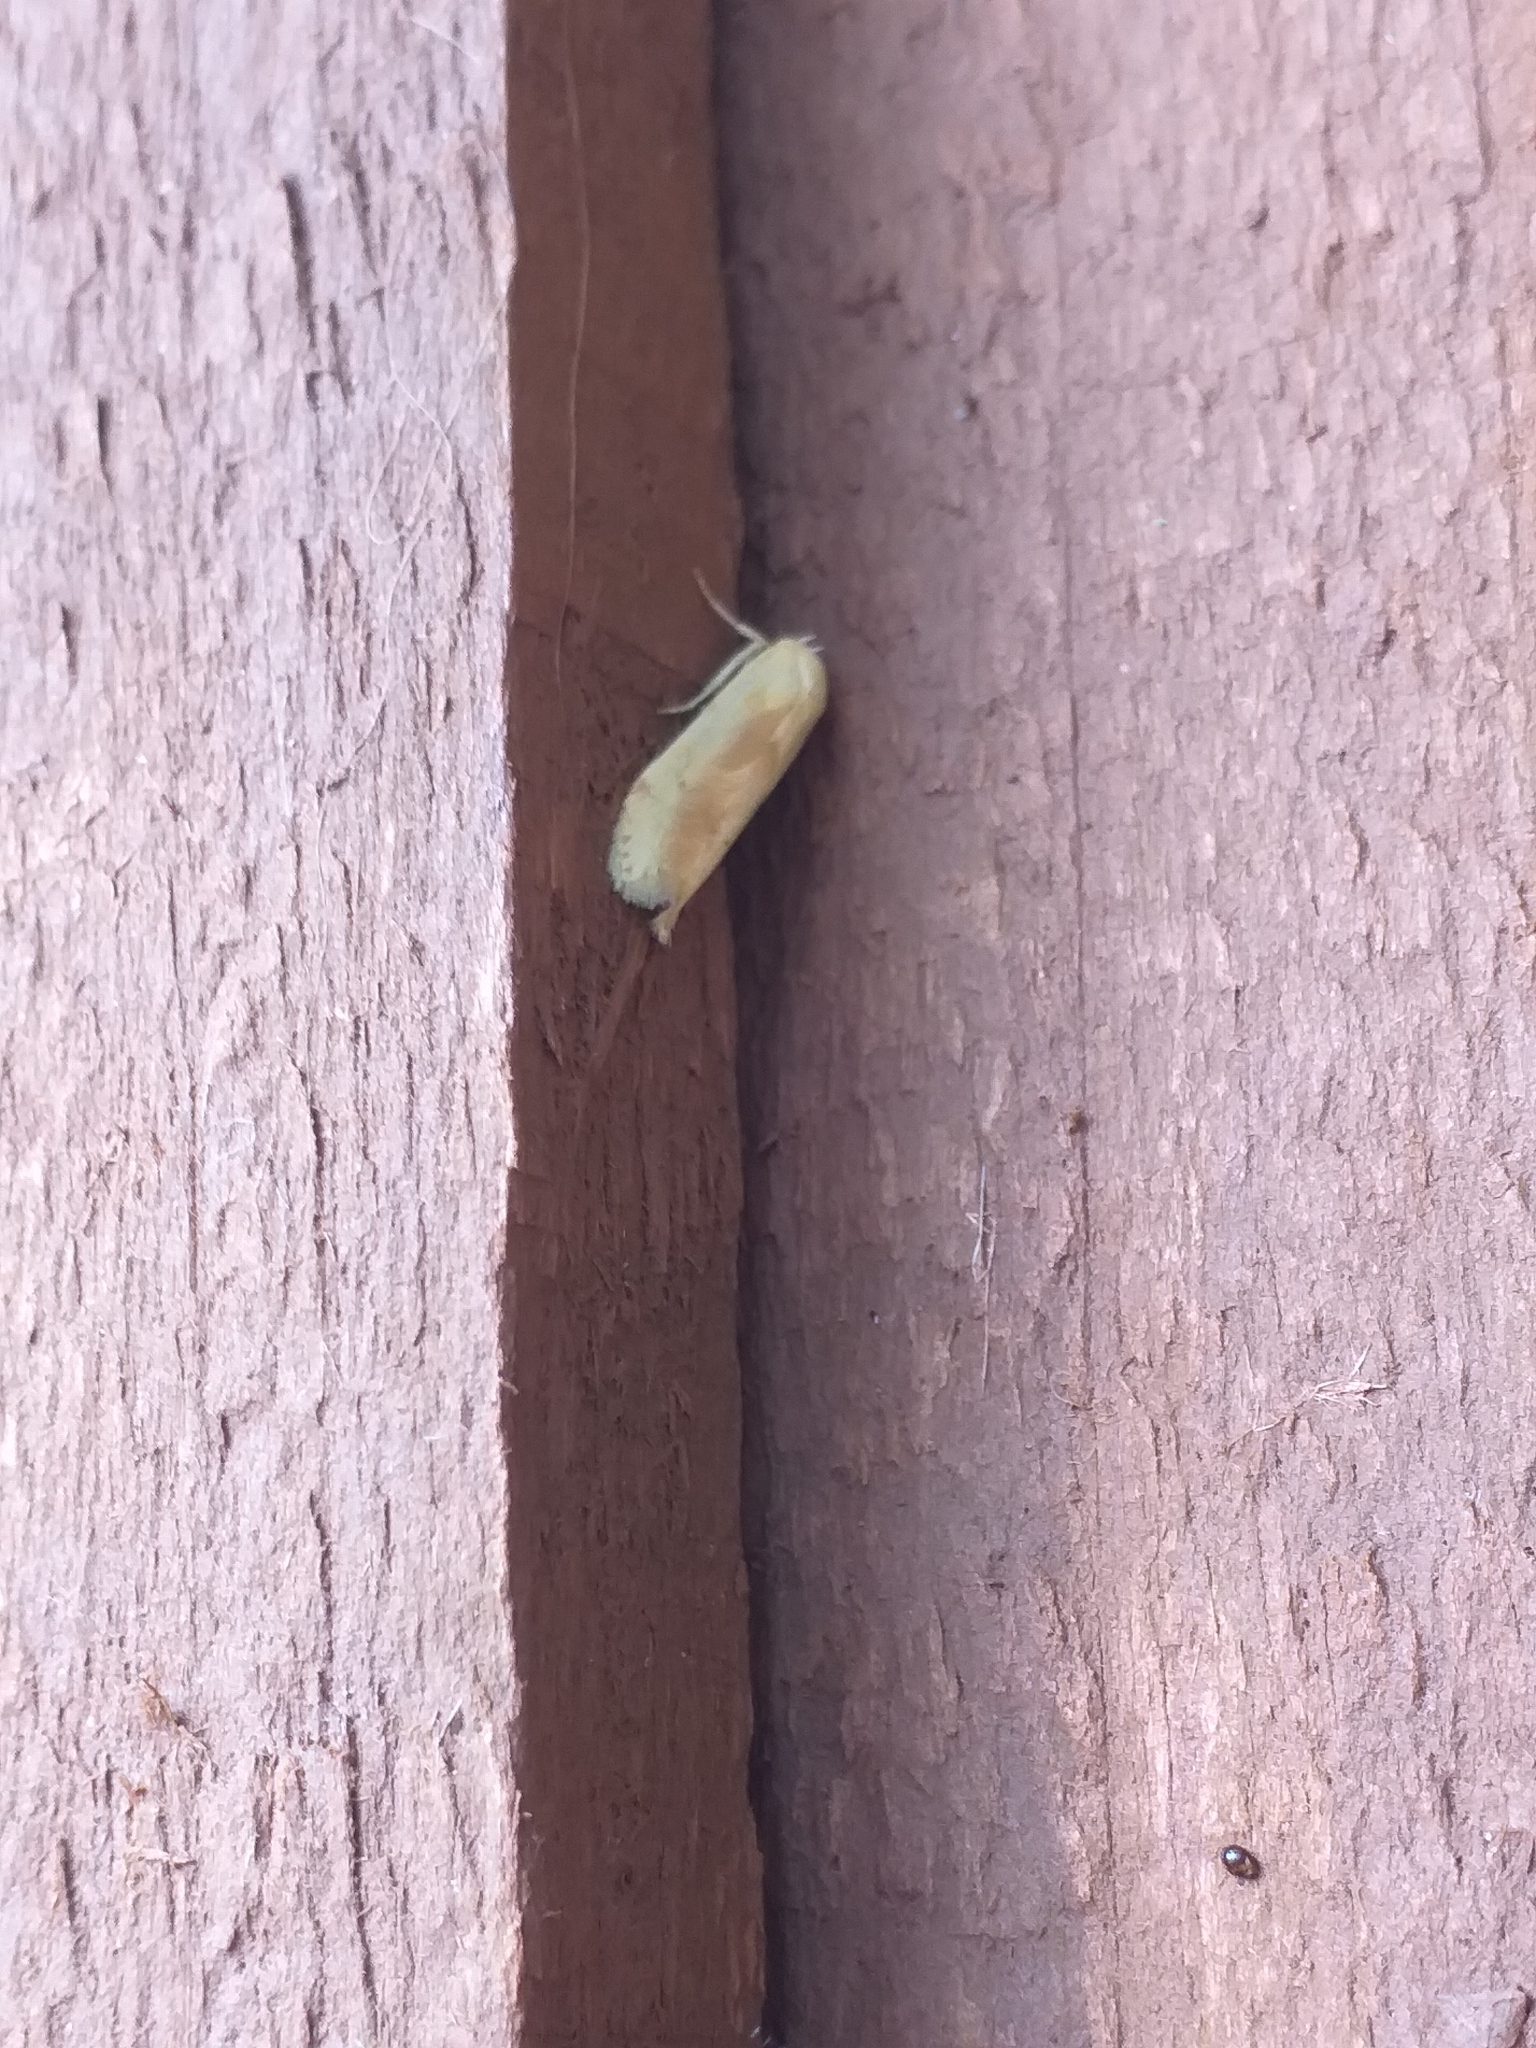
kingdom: Animalia
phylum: Arthropoda
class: Insecta
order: Lepidoptera
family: Blastobasidae
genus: Blastobasis
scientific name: Blastobasis lacticolella
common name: London dowd
